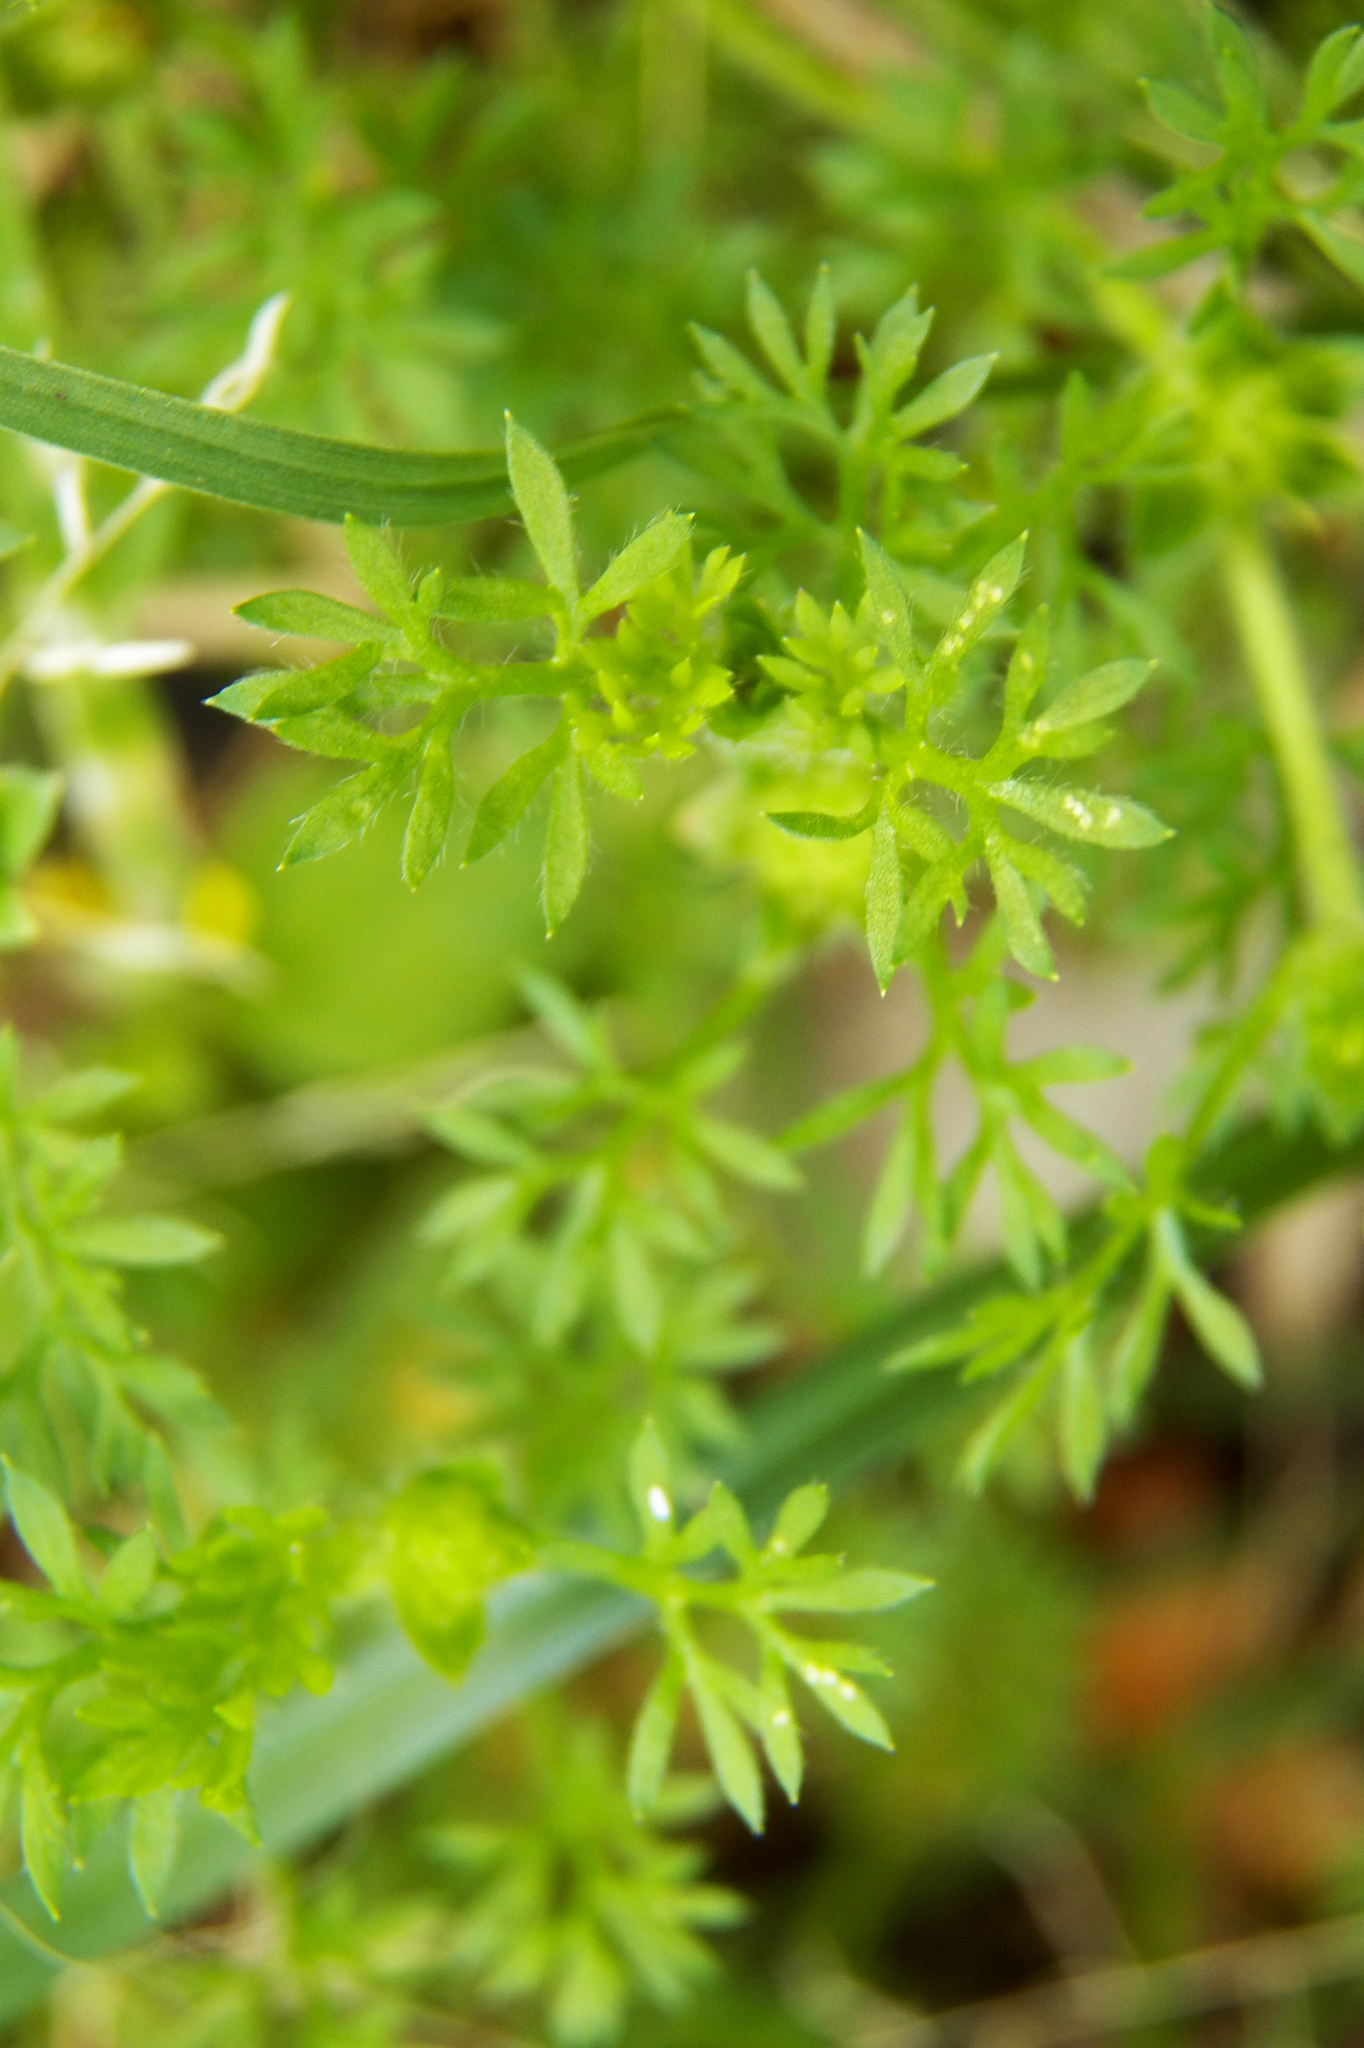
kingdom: Plantae
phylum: Tracheophyta
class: Magnoliopsida
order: Asterales
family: Asteraceae
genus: Soliva
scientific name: Soliva sessilis
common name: Field burrweed
